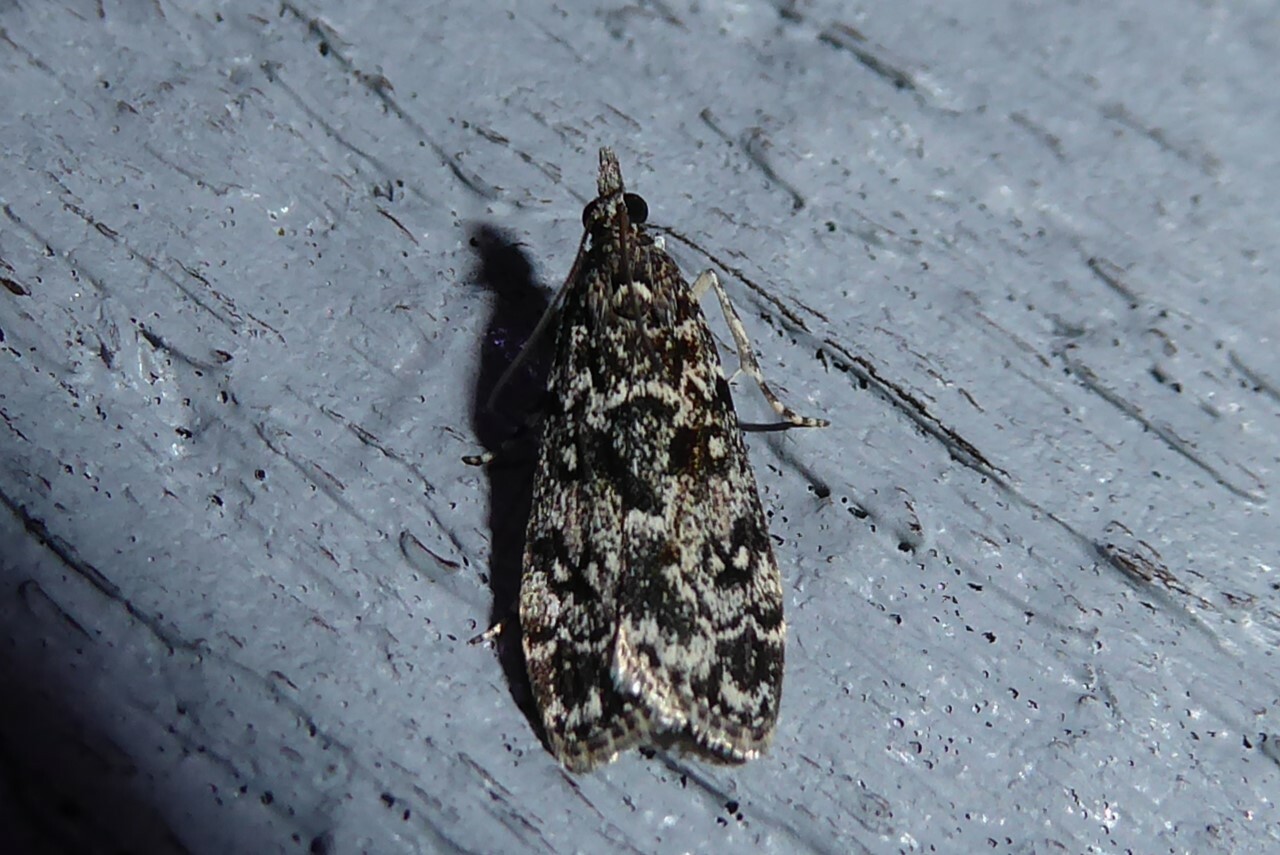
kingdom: Animalia
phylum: Arthropoda
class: Insecta
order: Lepidoptera
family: Crambidae
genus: Eudonia
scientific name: Eudonia philerga
